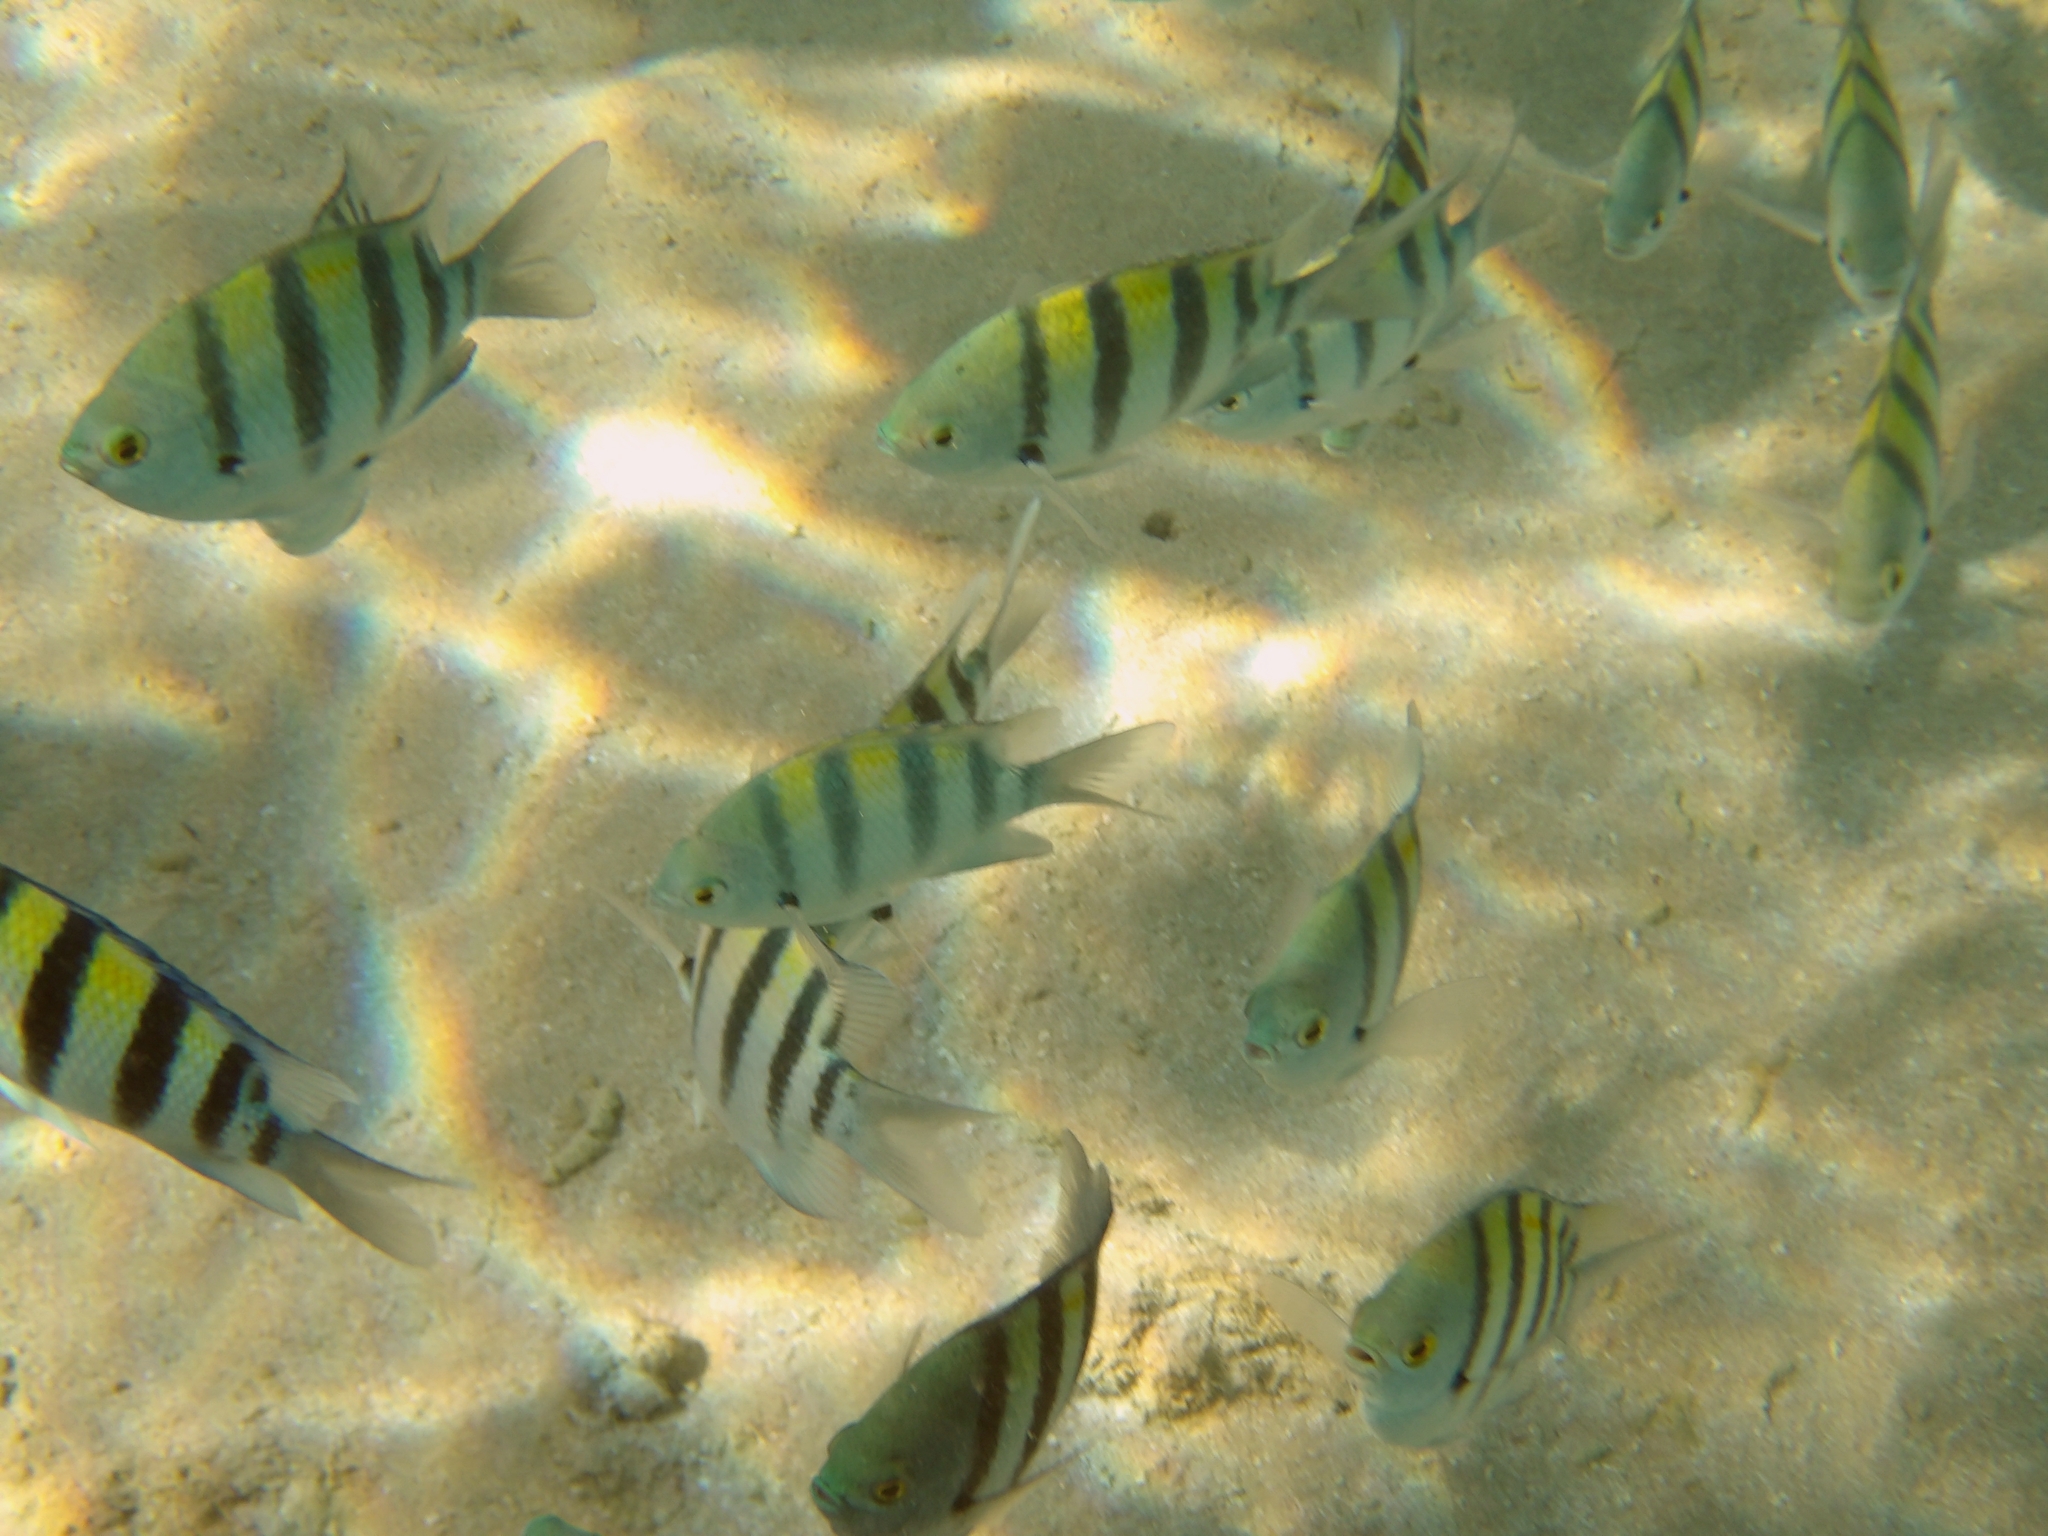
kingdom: Animalia
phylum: Chordata
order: Perciformes
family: Pomacentridae
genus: Abudefduf
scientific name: Abudefduf vaigiensis
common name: Indo-pacific sergeant
